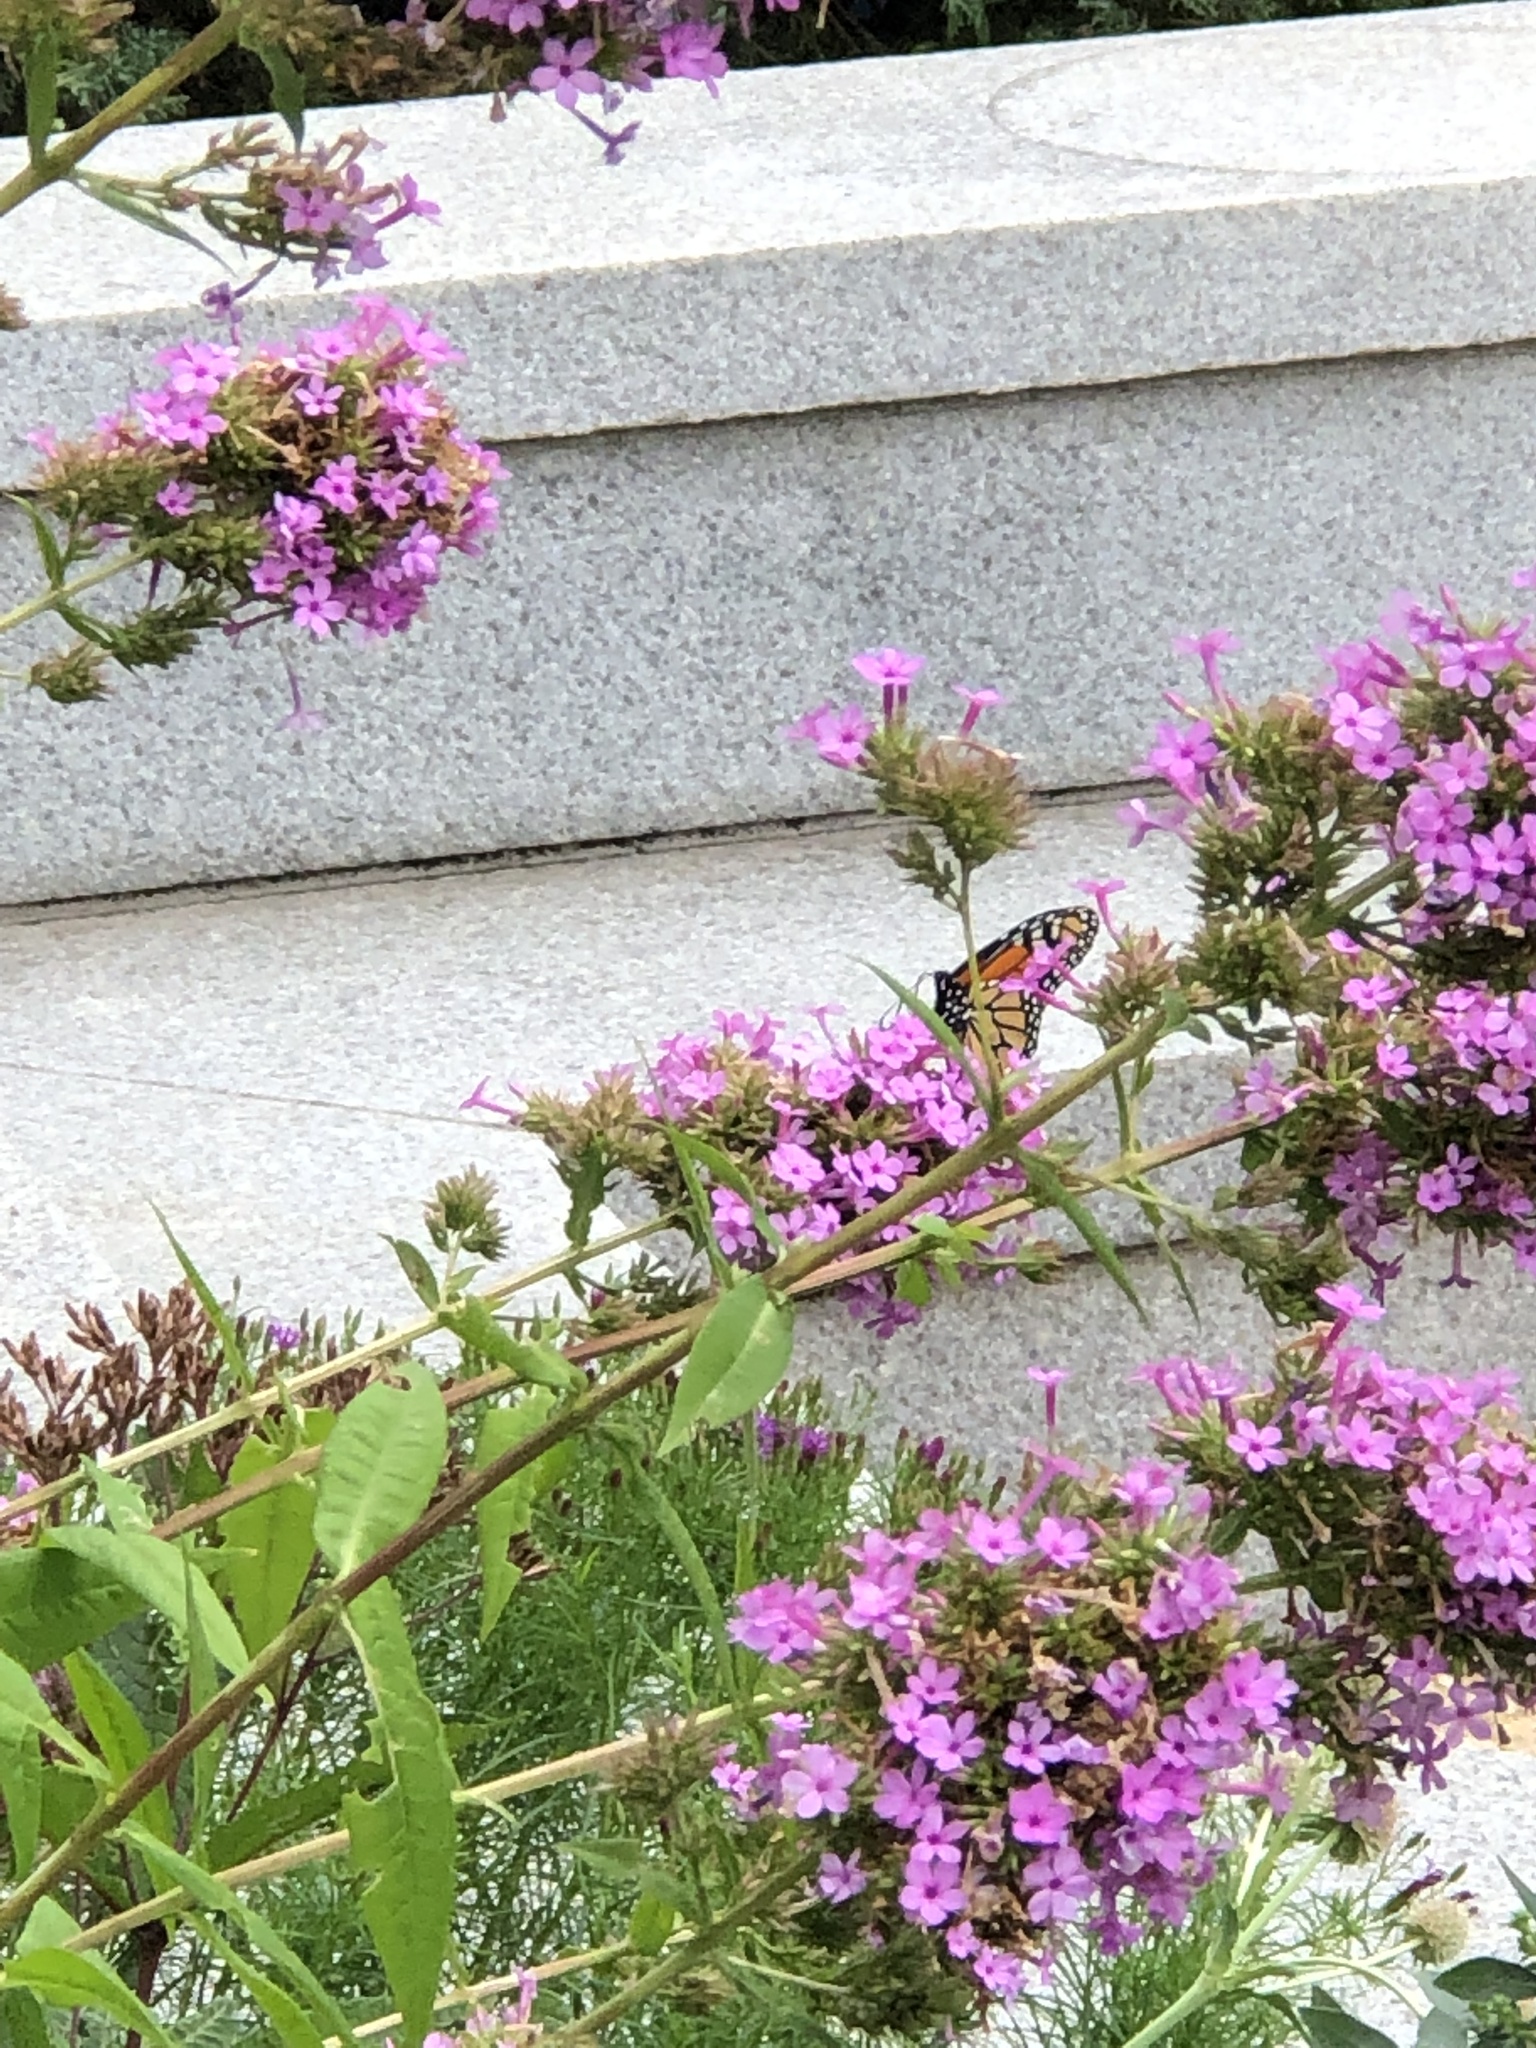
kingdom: Animalia
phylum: Arthropoda
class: Insecta
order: Lepidoptera
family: Nymphalidae
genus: Danaus
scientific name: Danaus plexippus
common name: Monarch
